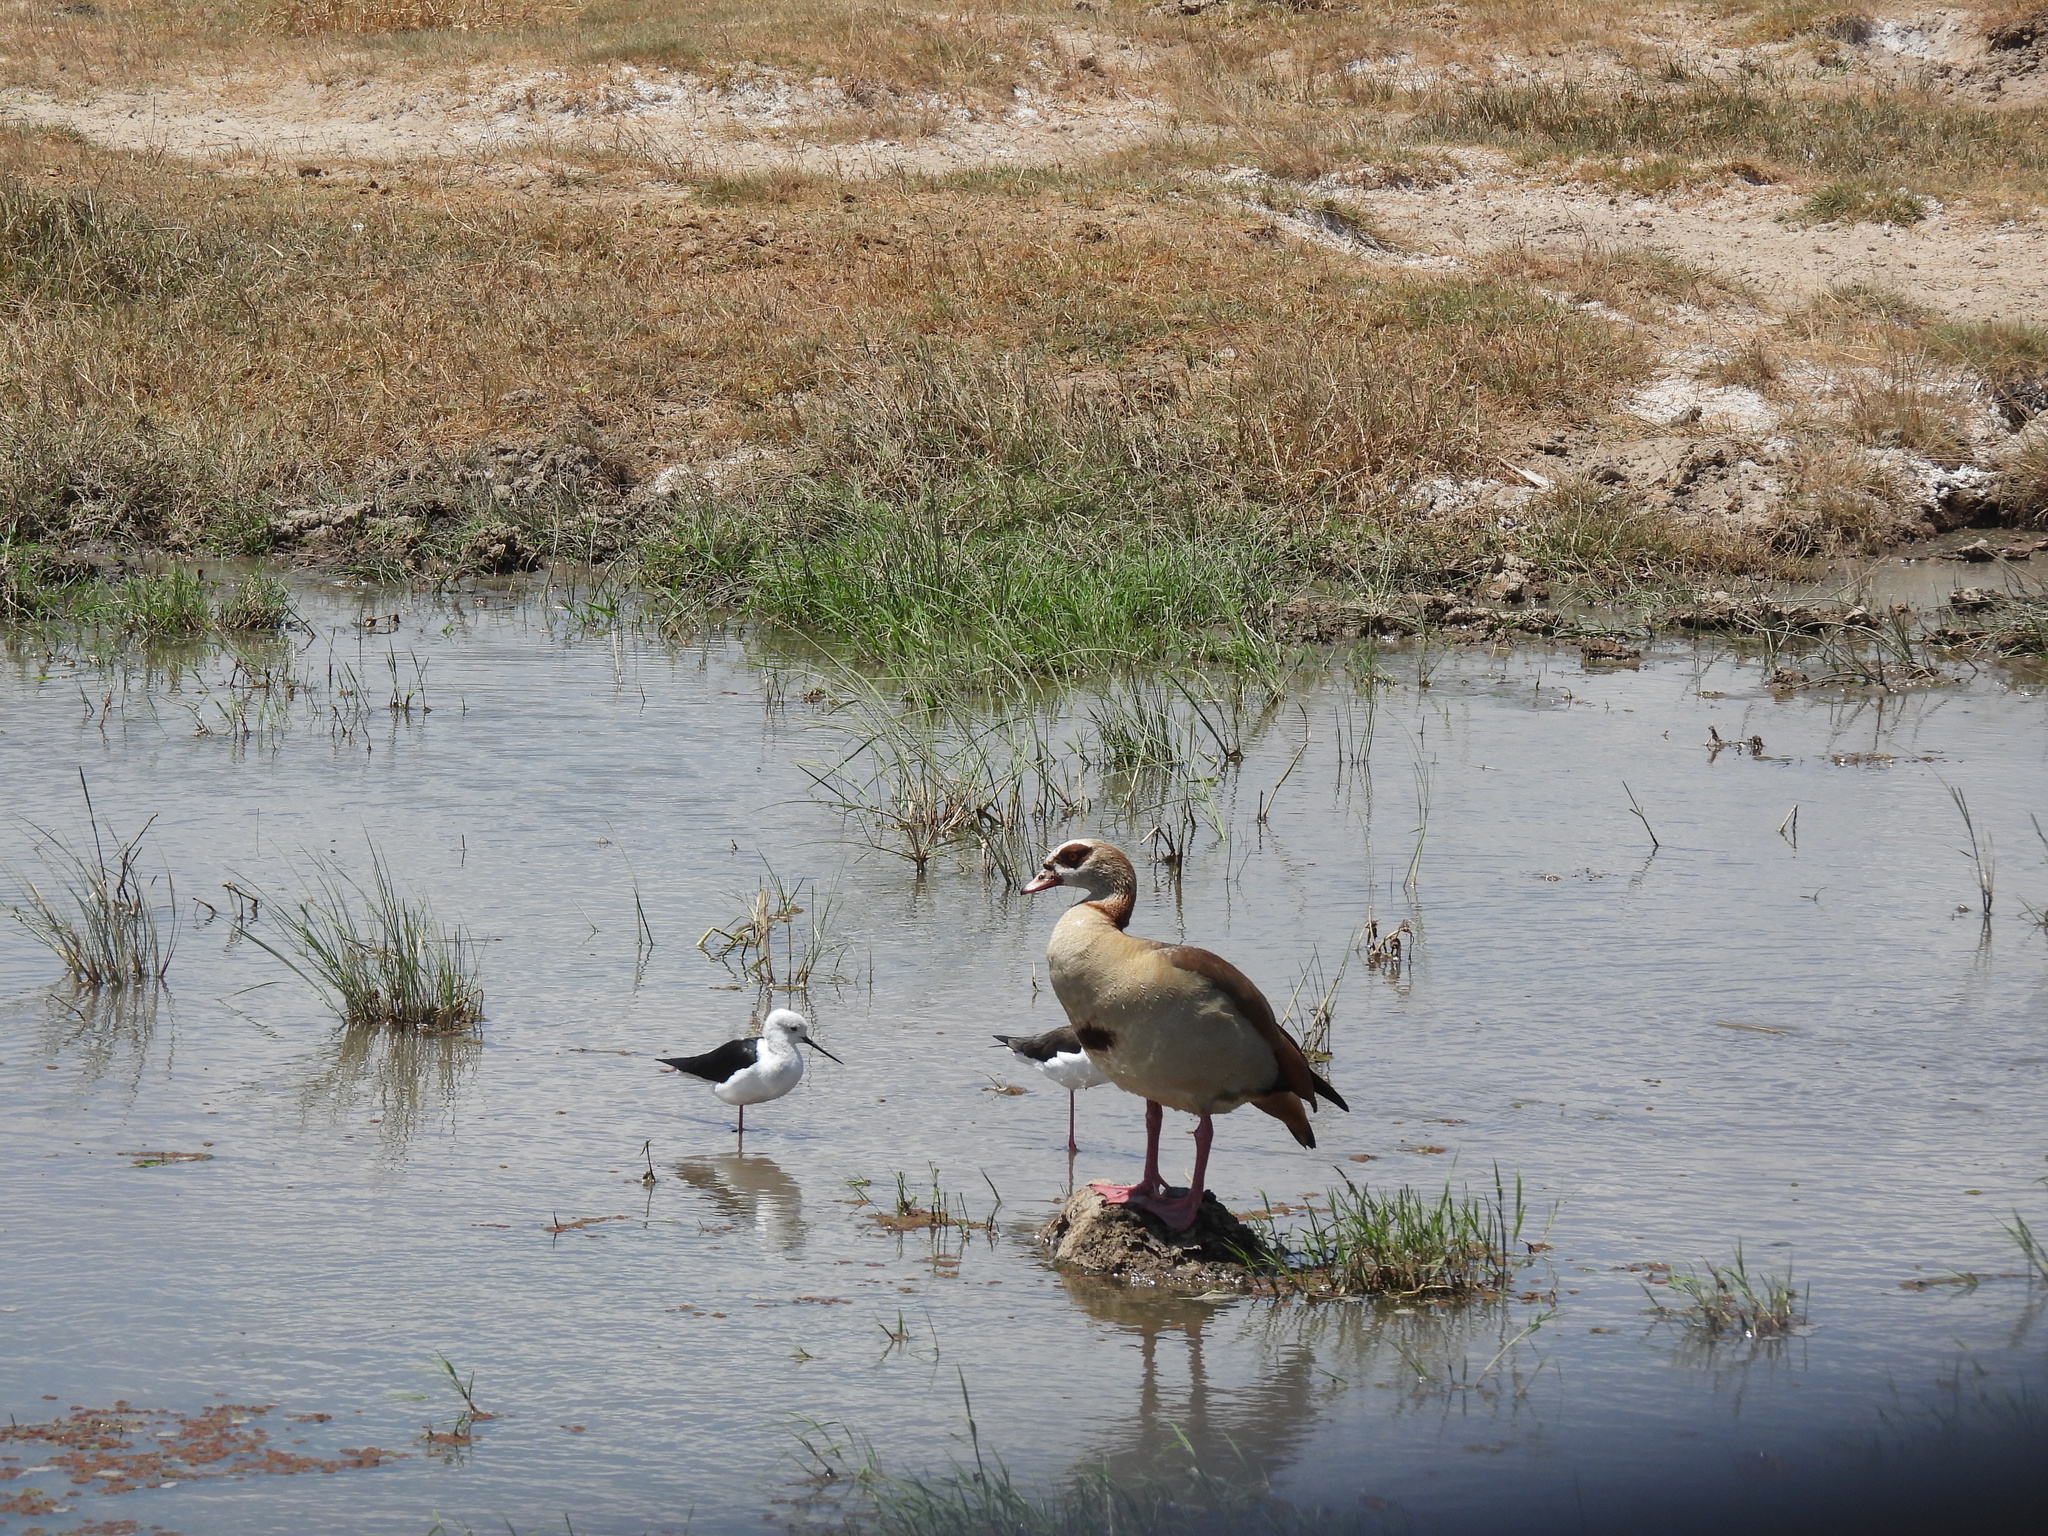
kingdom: Animalia
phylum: Chordata
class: Aves
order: Charadriiformes
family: Recurvirostridae
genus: Himantopus
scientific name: Himantopus himantopus
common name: Black-winged stilt
